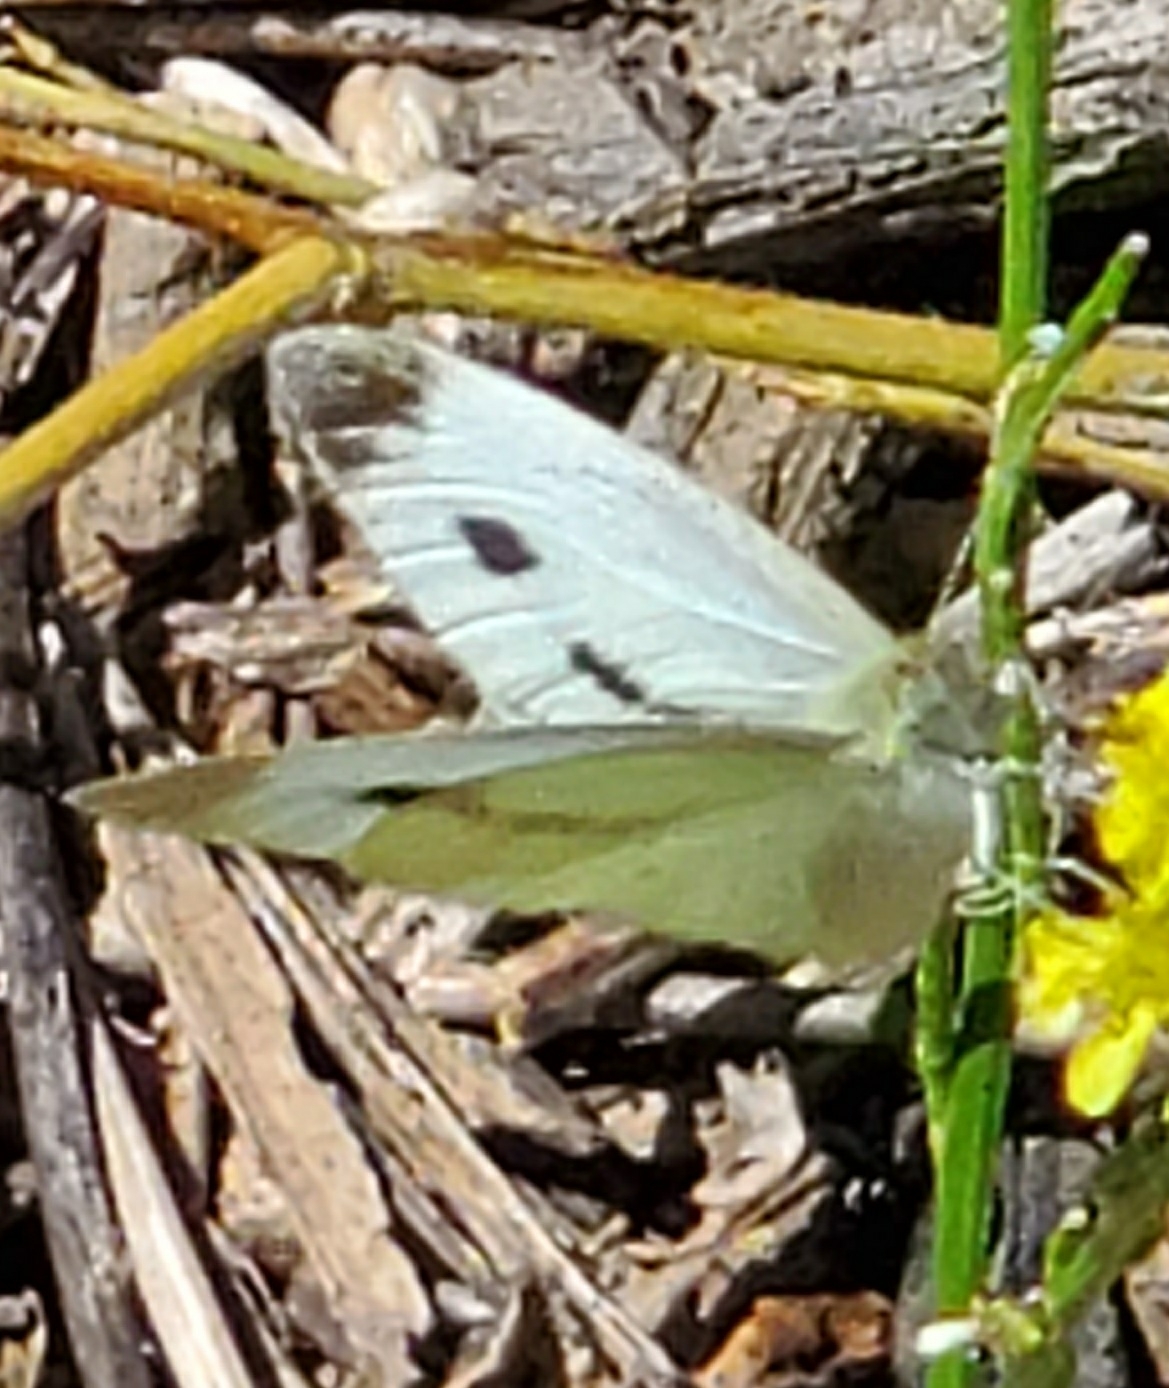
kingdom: Animalia
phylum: Arthropoda
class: Insecta
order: Lepidoptera
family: Pieridae
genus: Pieris
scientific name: Pieris rapae
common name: Small white
